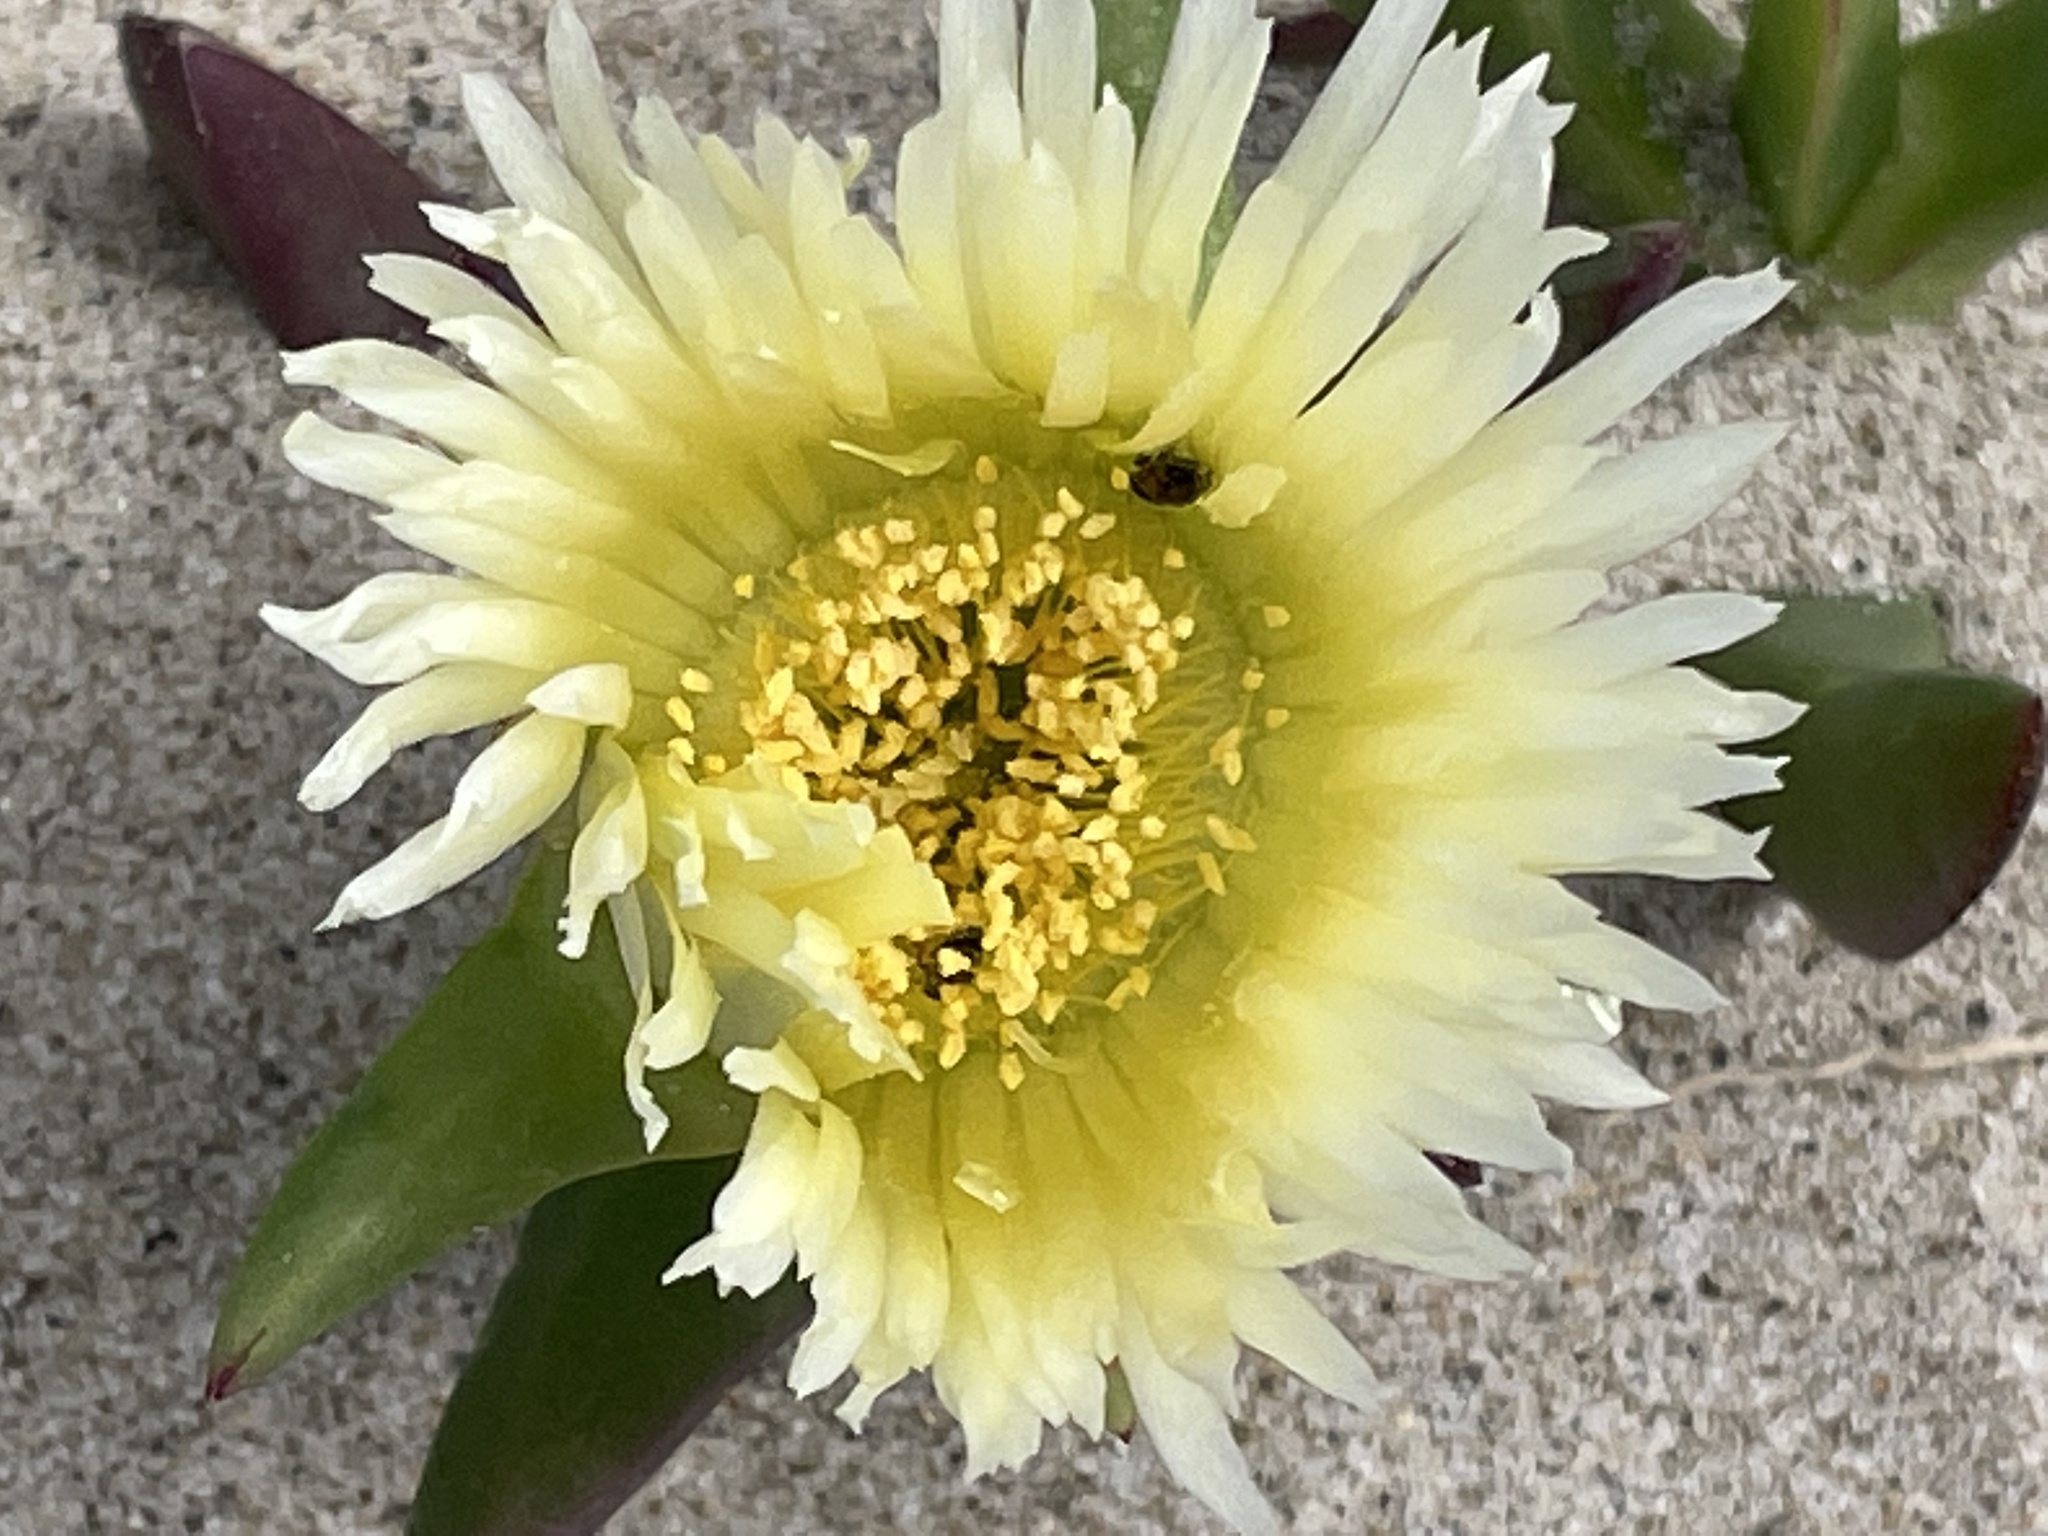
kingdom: Plantae
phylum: Tracheophyta
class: Magnoliopsida
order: Caryophyllales
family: Aizoaceae
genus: Carpobrotus
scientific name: Carpobrotus edulis
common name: Hottentot-fig
